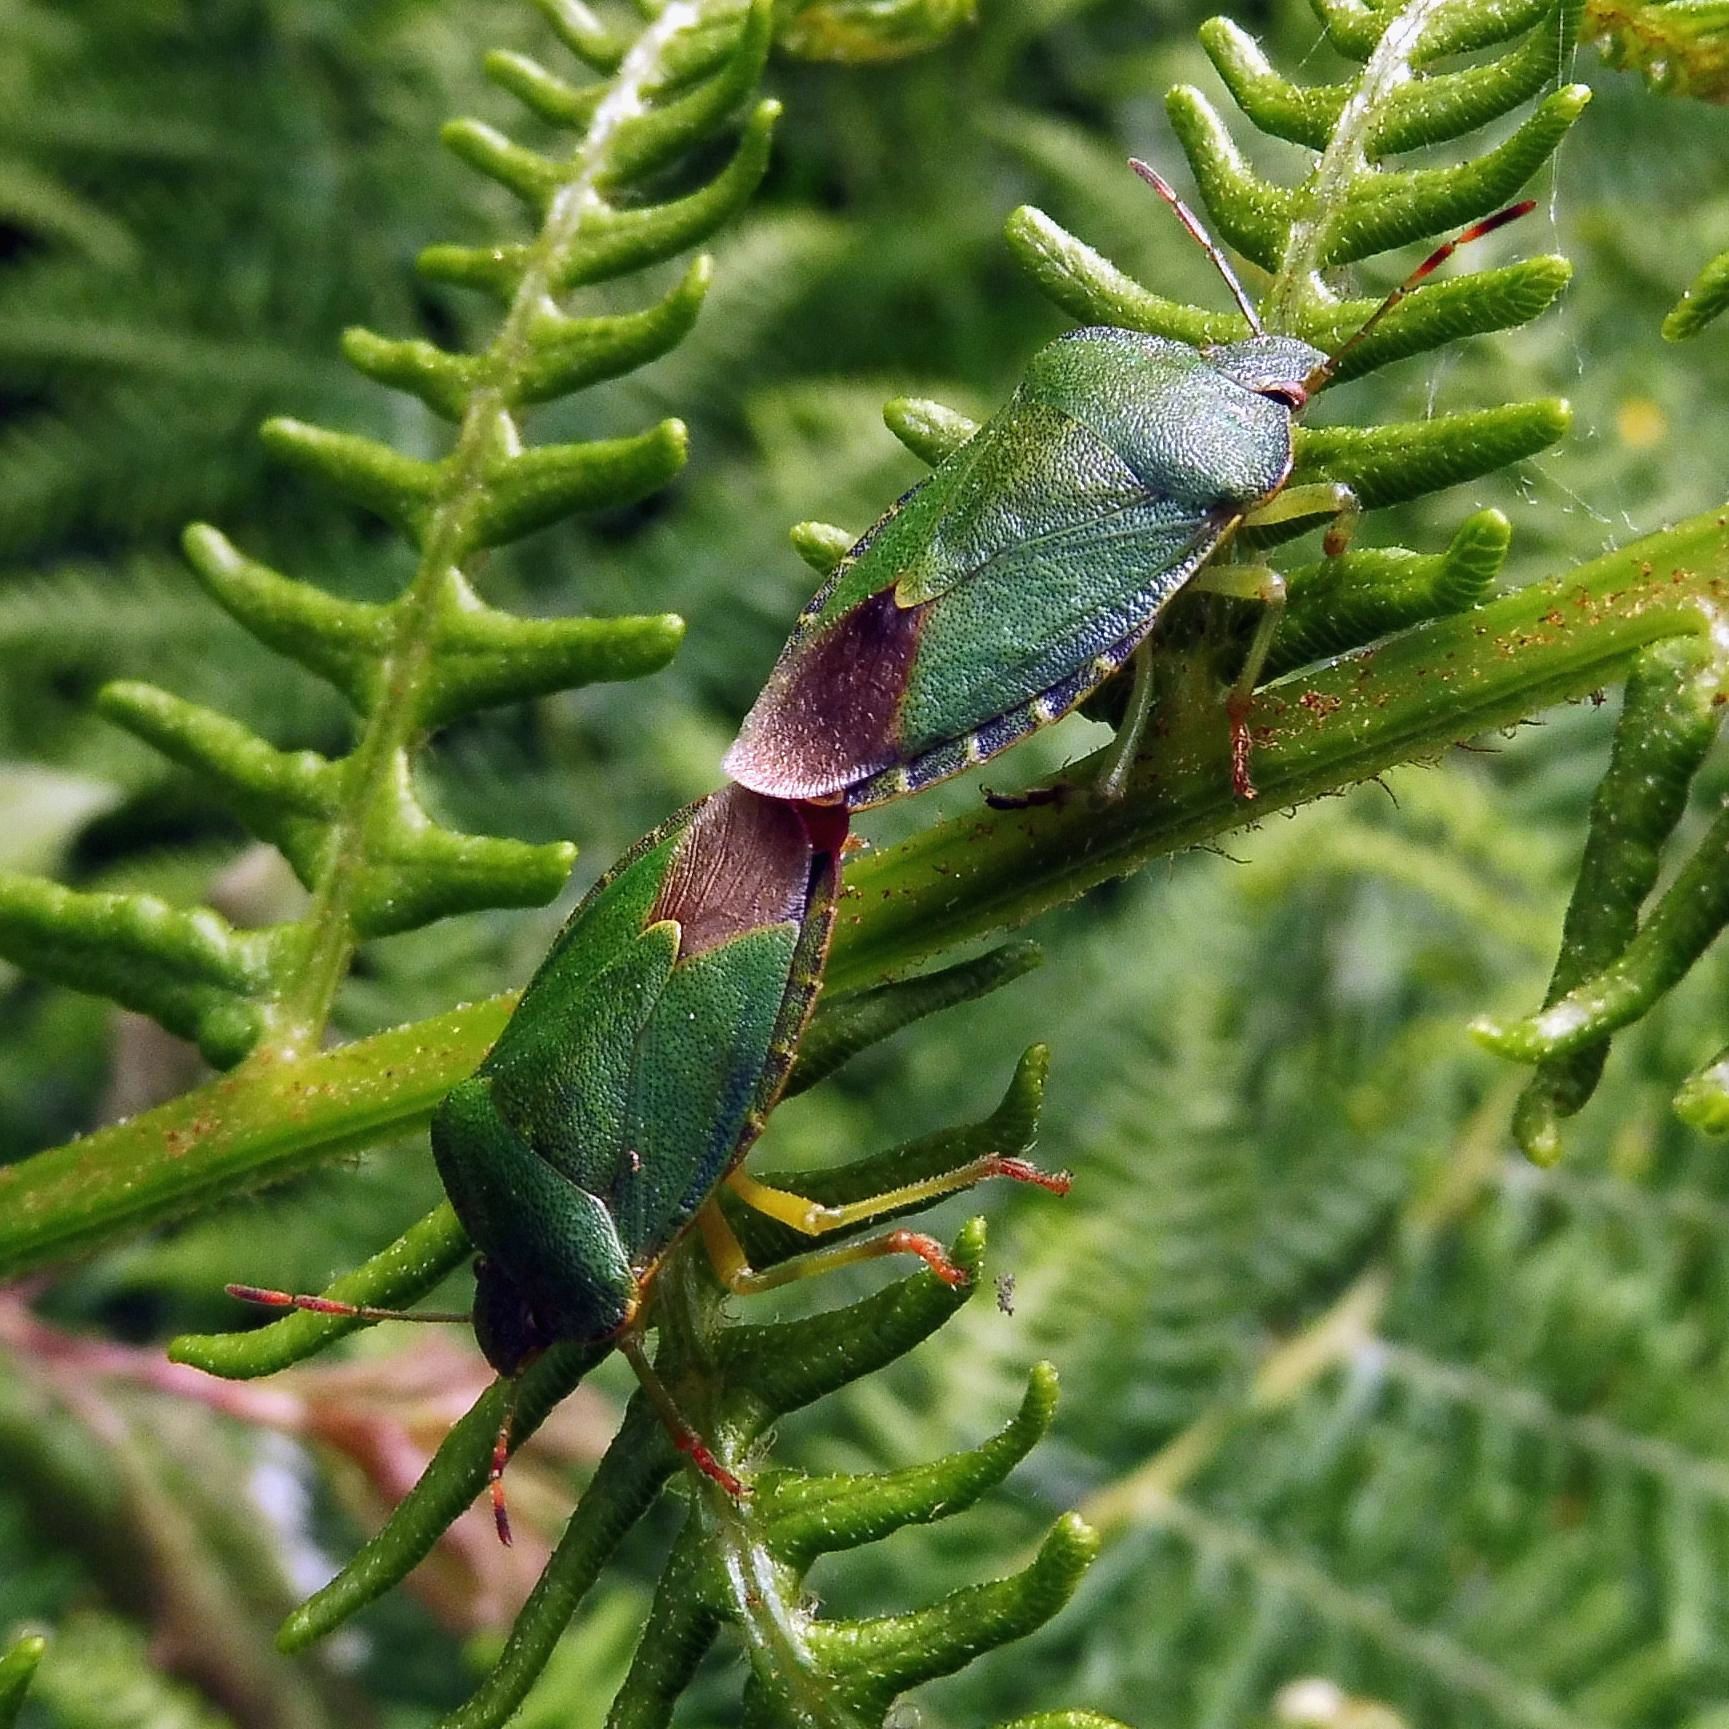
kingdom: Animalia
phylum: Arthropoda
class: Insecta
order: Hemiptera
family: Pentatomidae
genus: Palomena
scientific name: Palomena prasina
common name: Green shieldbug
